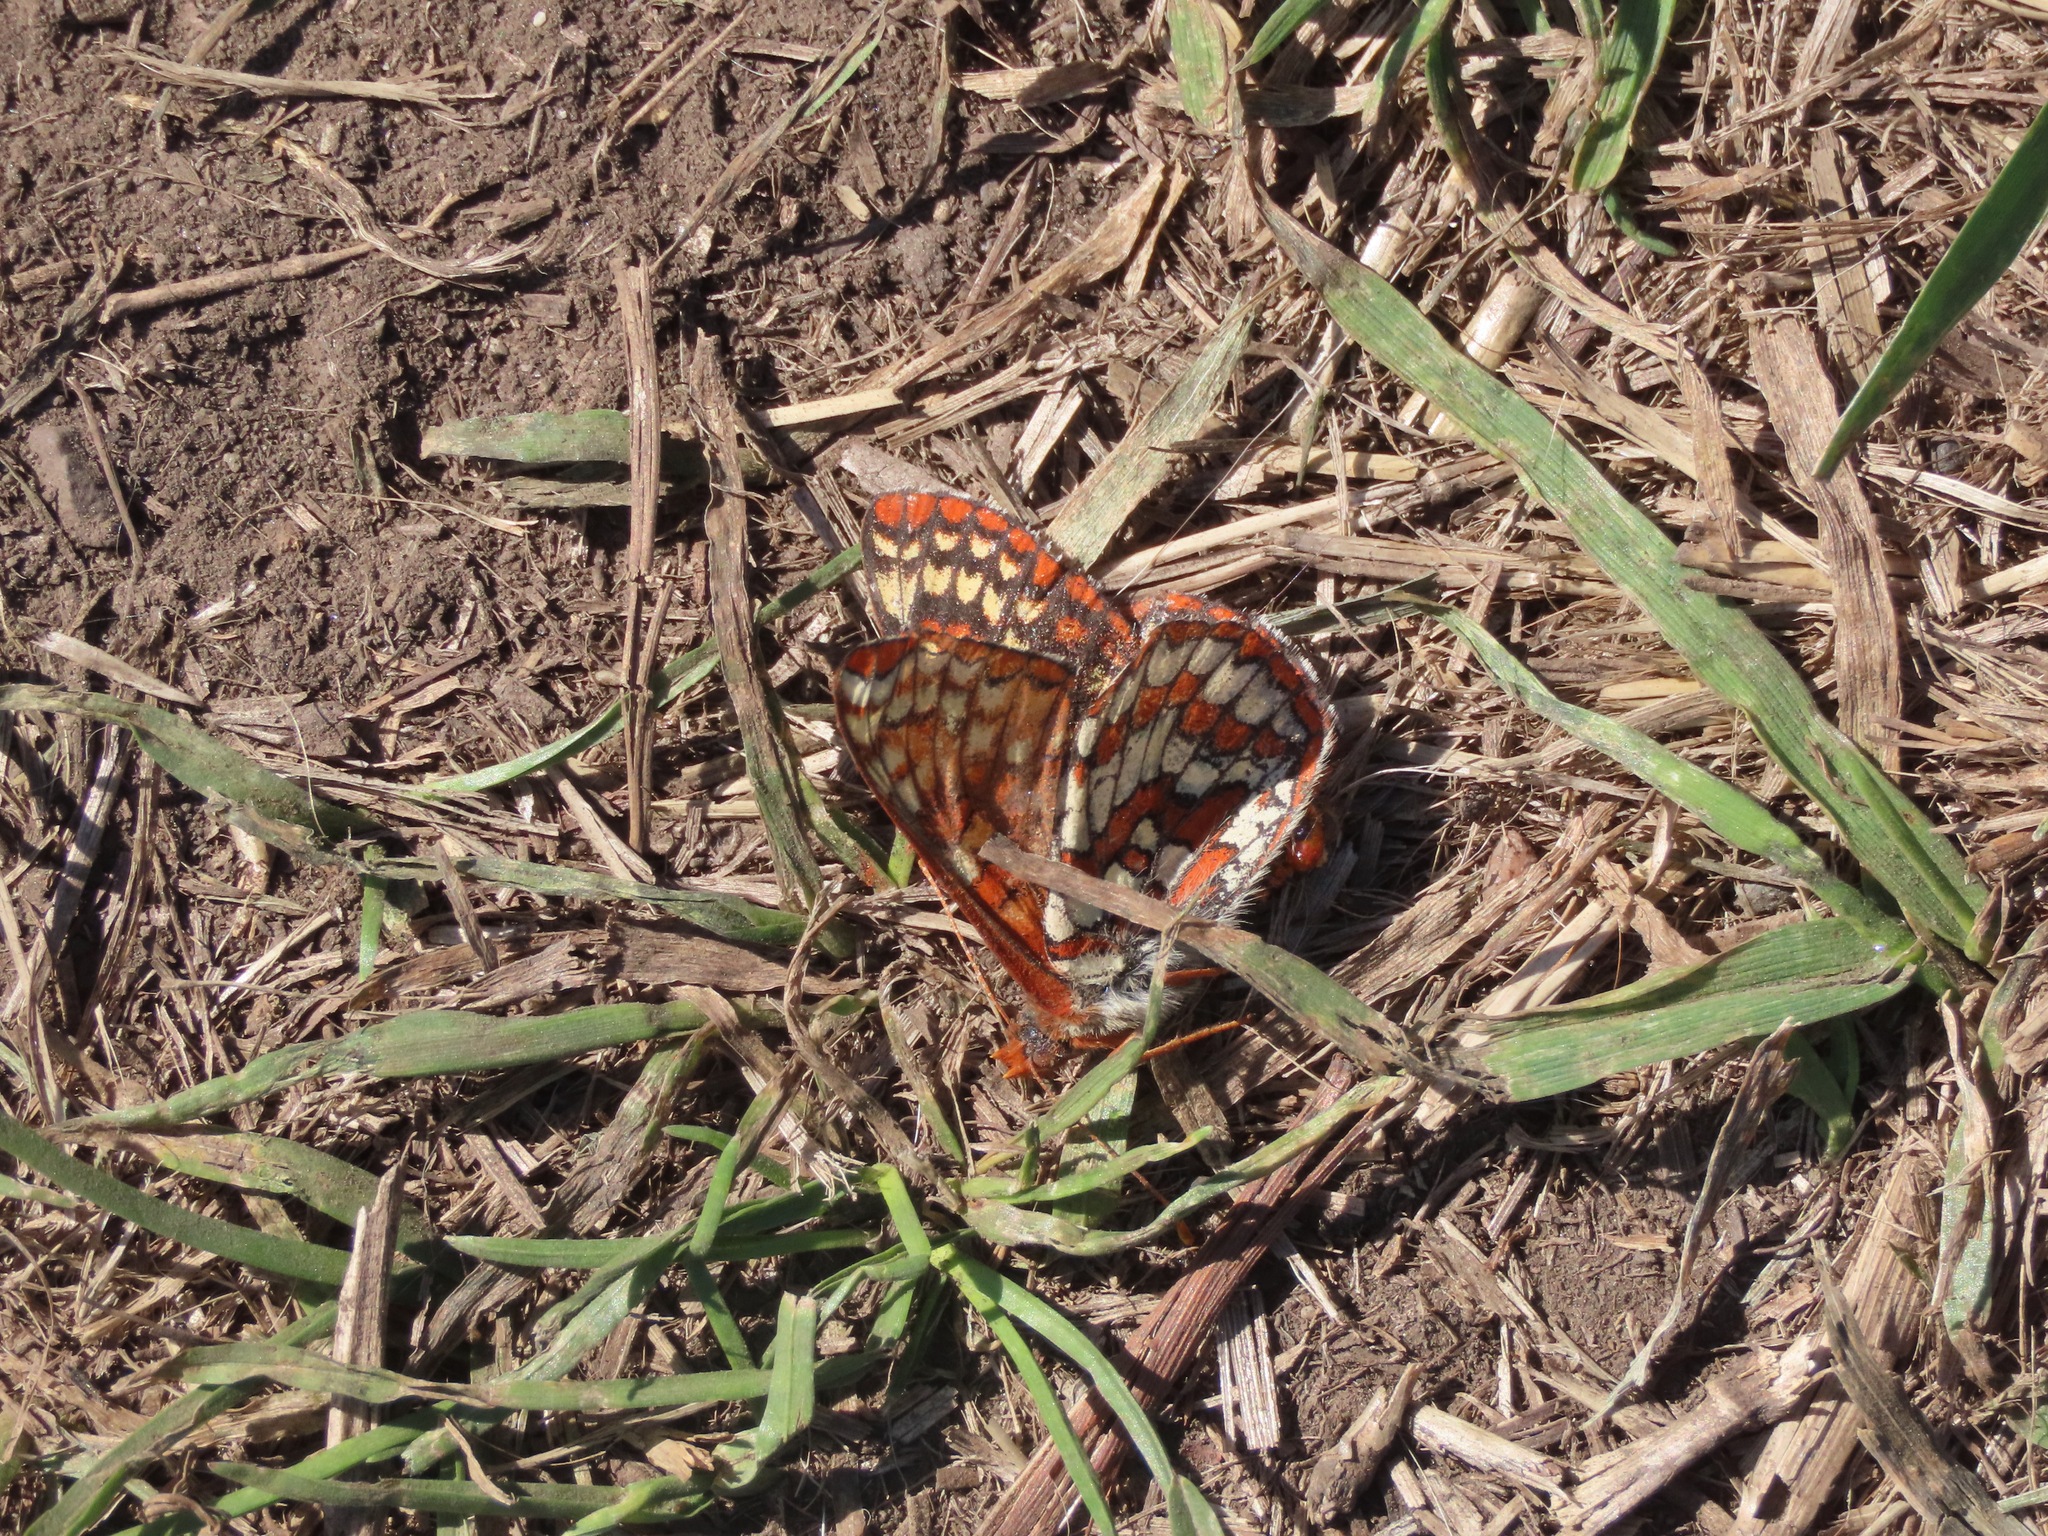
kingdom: Animalia
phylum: Arthropoda
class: Insecta
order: Lepidoptera
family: Nymphalidae
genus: Occidryas
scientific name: Occidryas anicia
